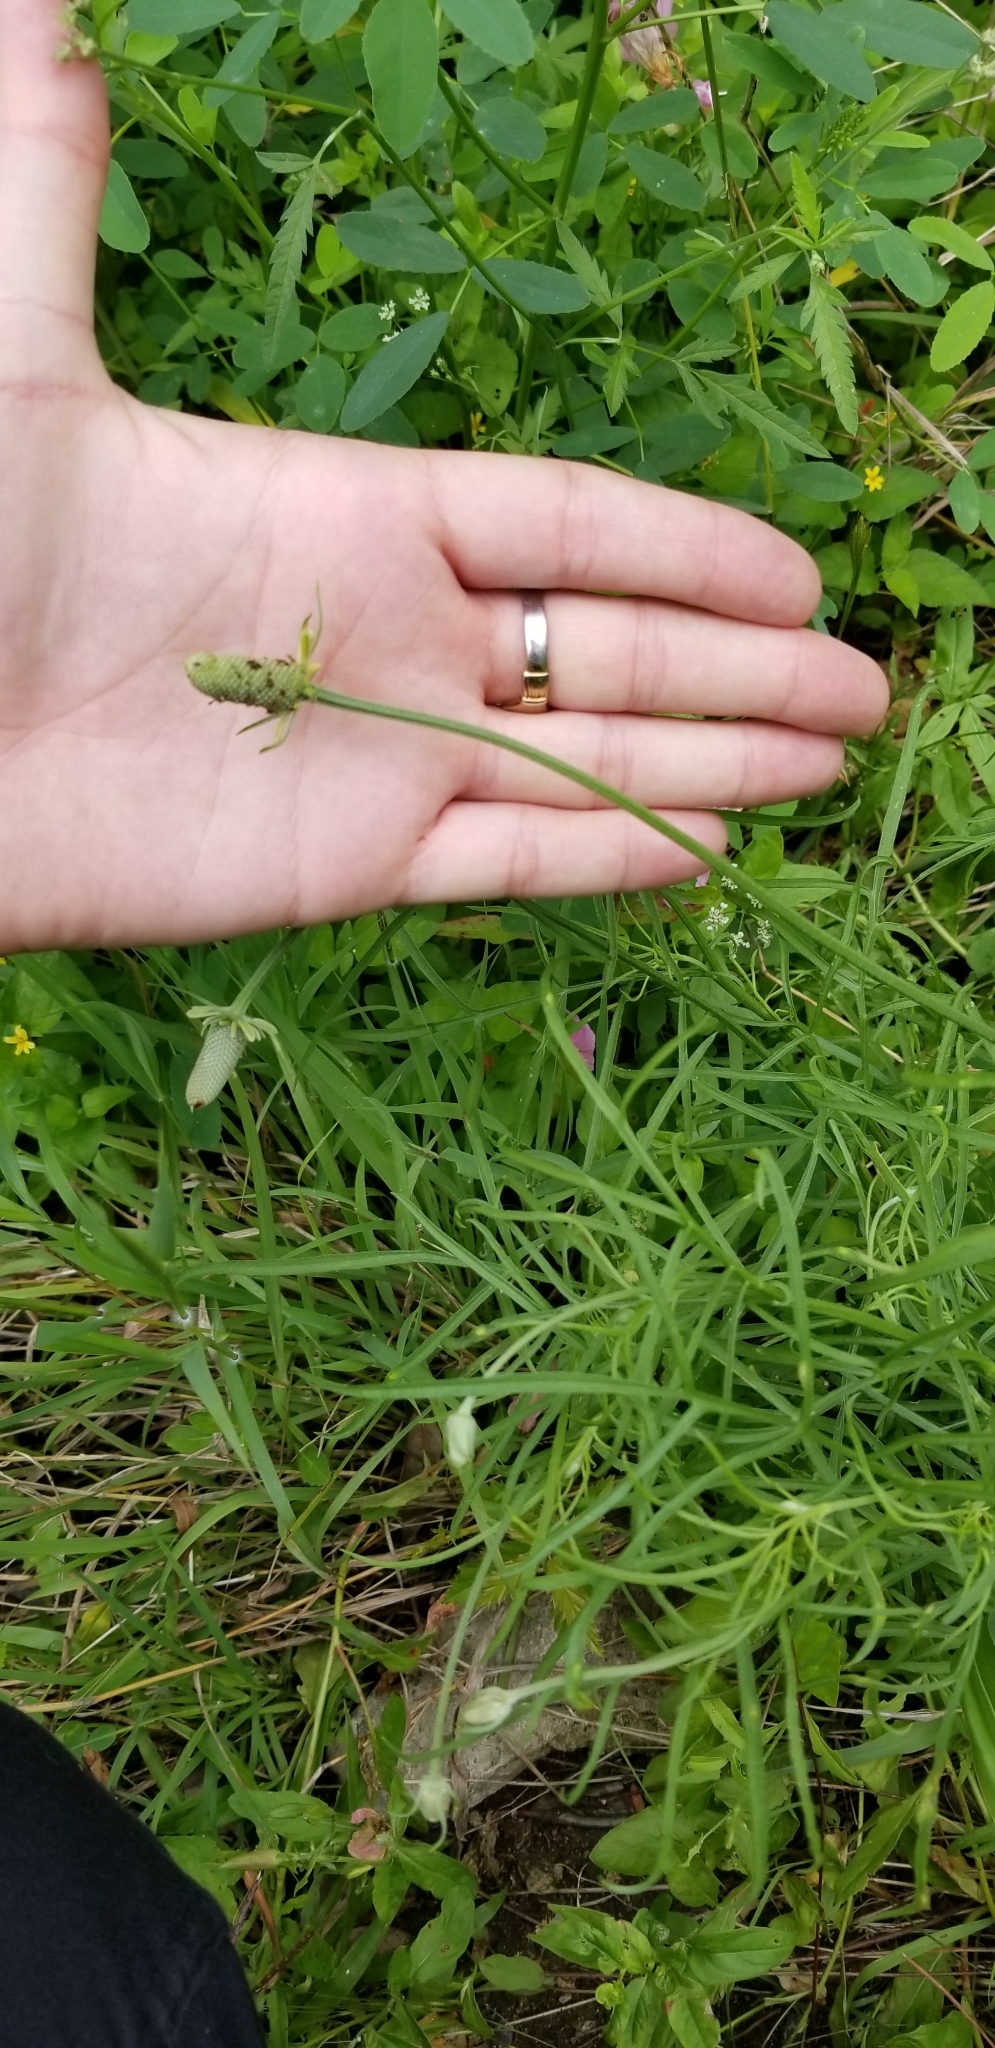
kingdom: Plantae
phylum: Tracheophyta
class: Magnoliopsida
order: Asterales
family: Asteraceae
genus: Ratibida
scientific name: Ratibida columnifera
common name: Prairie coneflower
